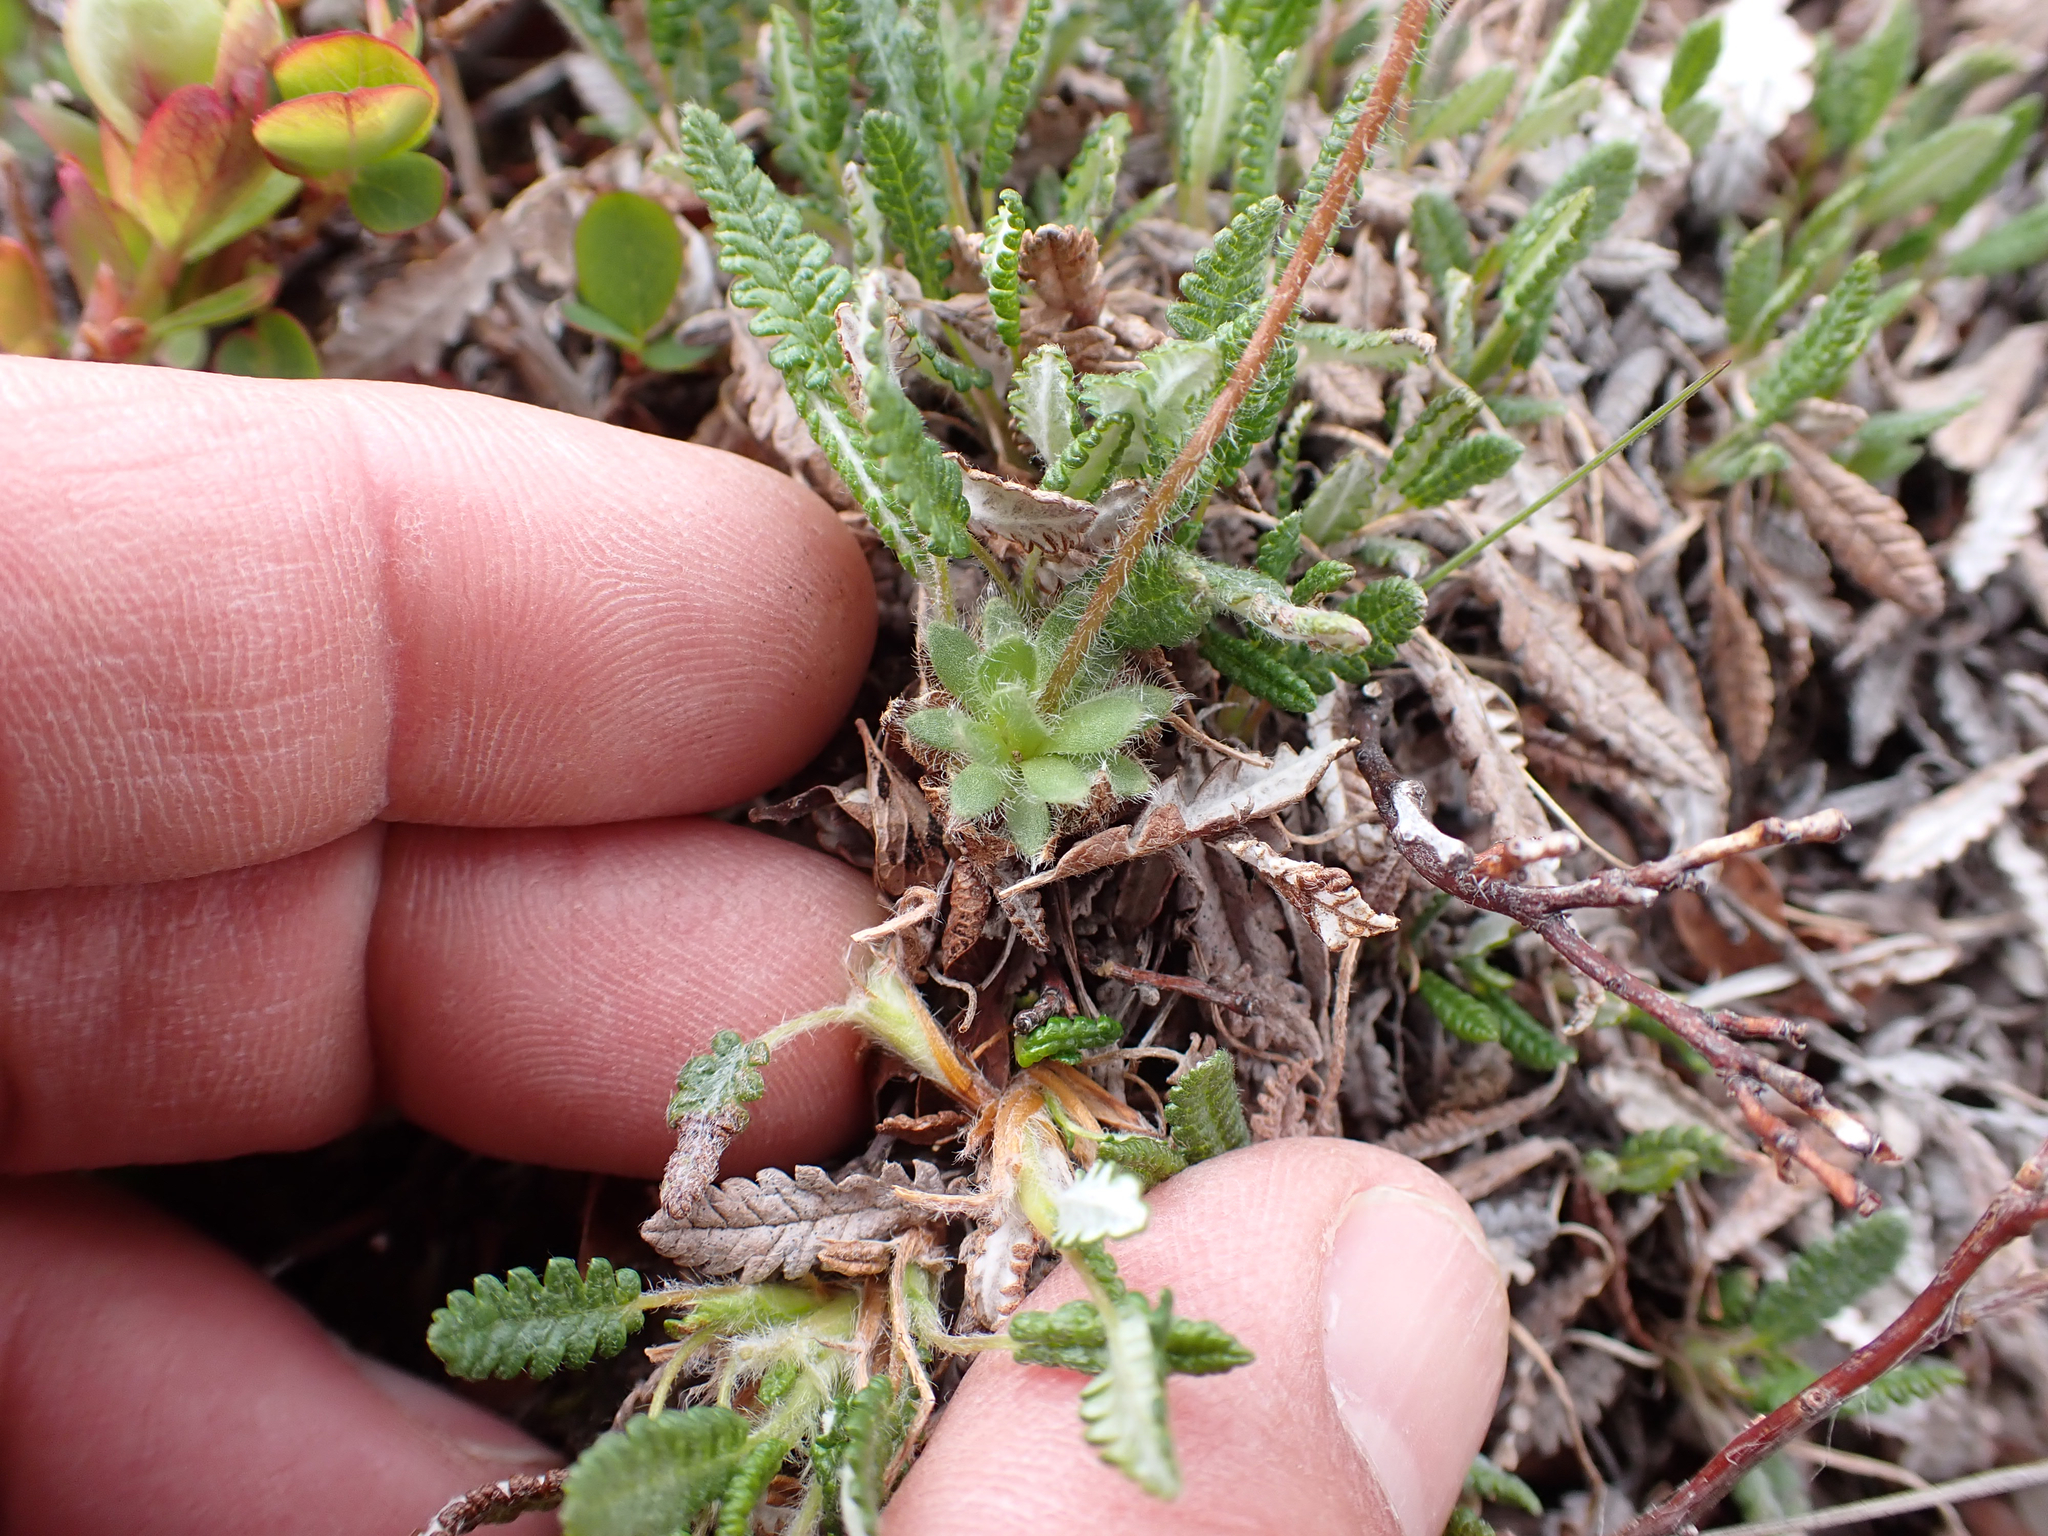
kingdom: Plantae
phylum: Tracheophyta
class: Magnoliopsida
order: Ericales
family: Primulaceae
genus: Androsace
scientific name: Androsace chamaejasme
